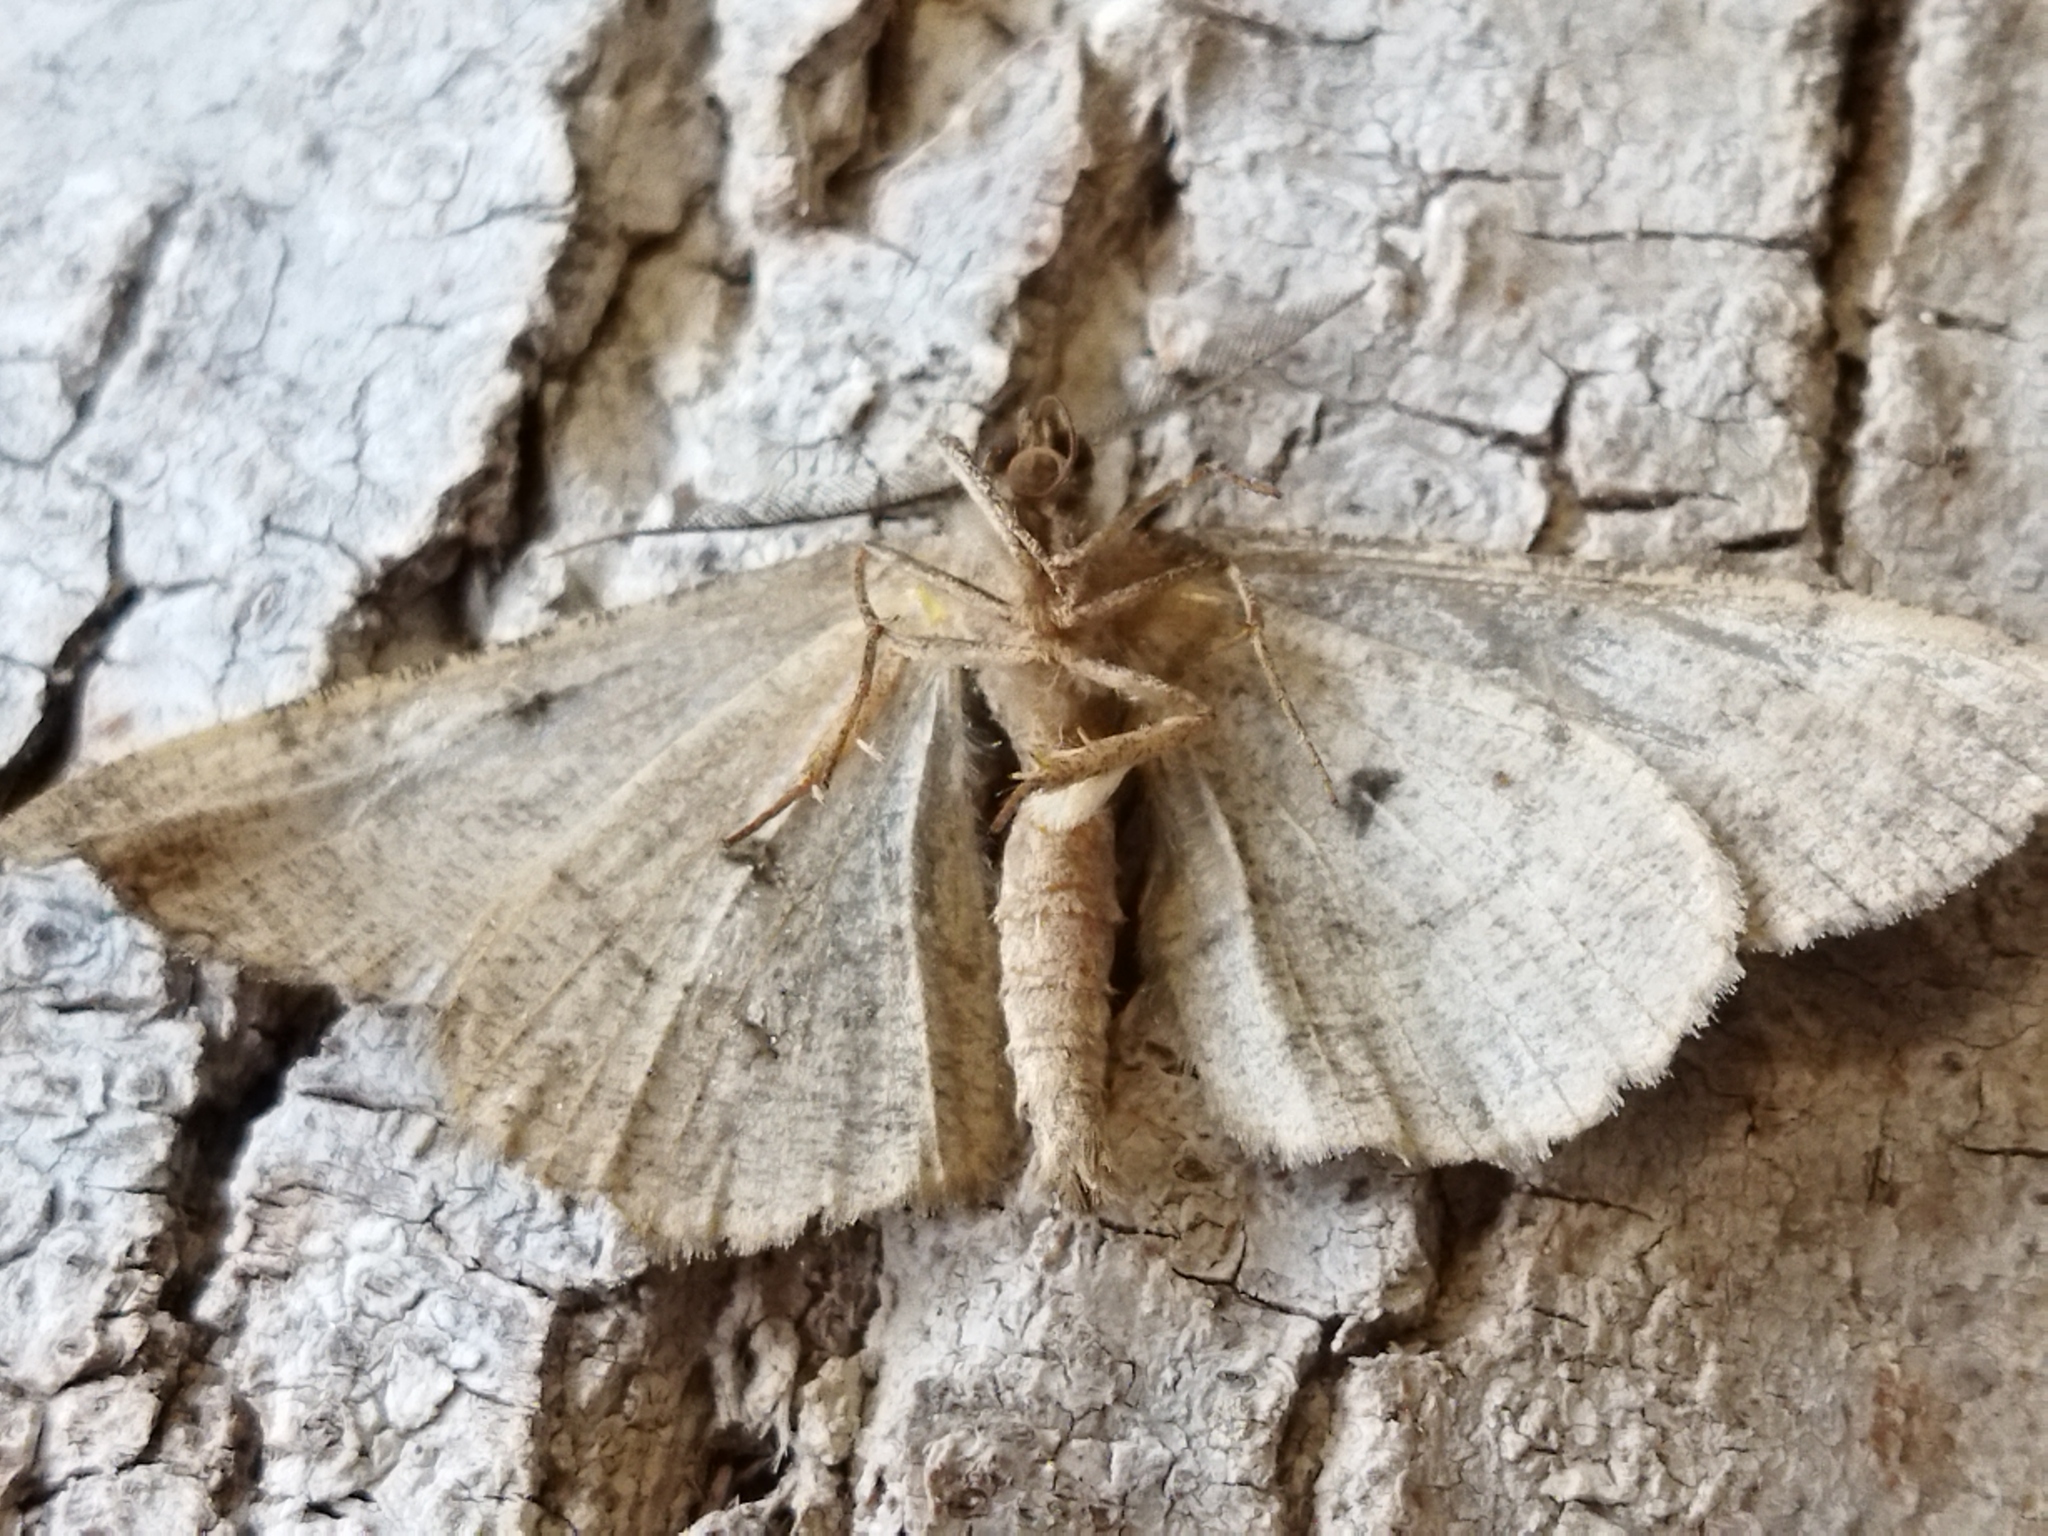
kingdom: Animalia
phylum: Arthropoda
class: Insecta
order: Lepidoptera
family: Geometridae
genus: Hypomecis
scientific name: Hypomecis punctinalis
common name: Pale oak beauty
